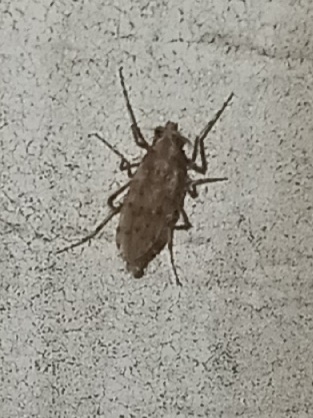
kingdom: Animalia
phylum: Arthropoda
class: Insecta
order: Diptera
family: Chaoboridae
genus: Chaoborus
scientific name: Chaoborus punctipennis
